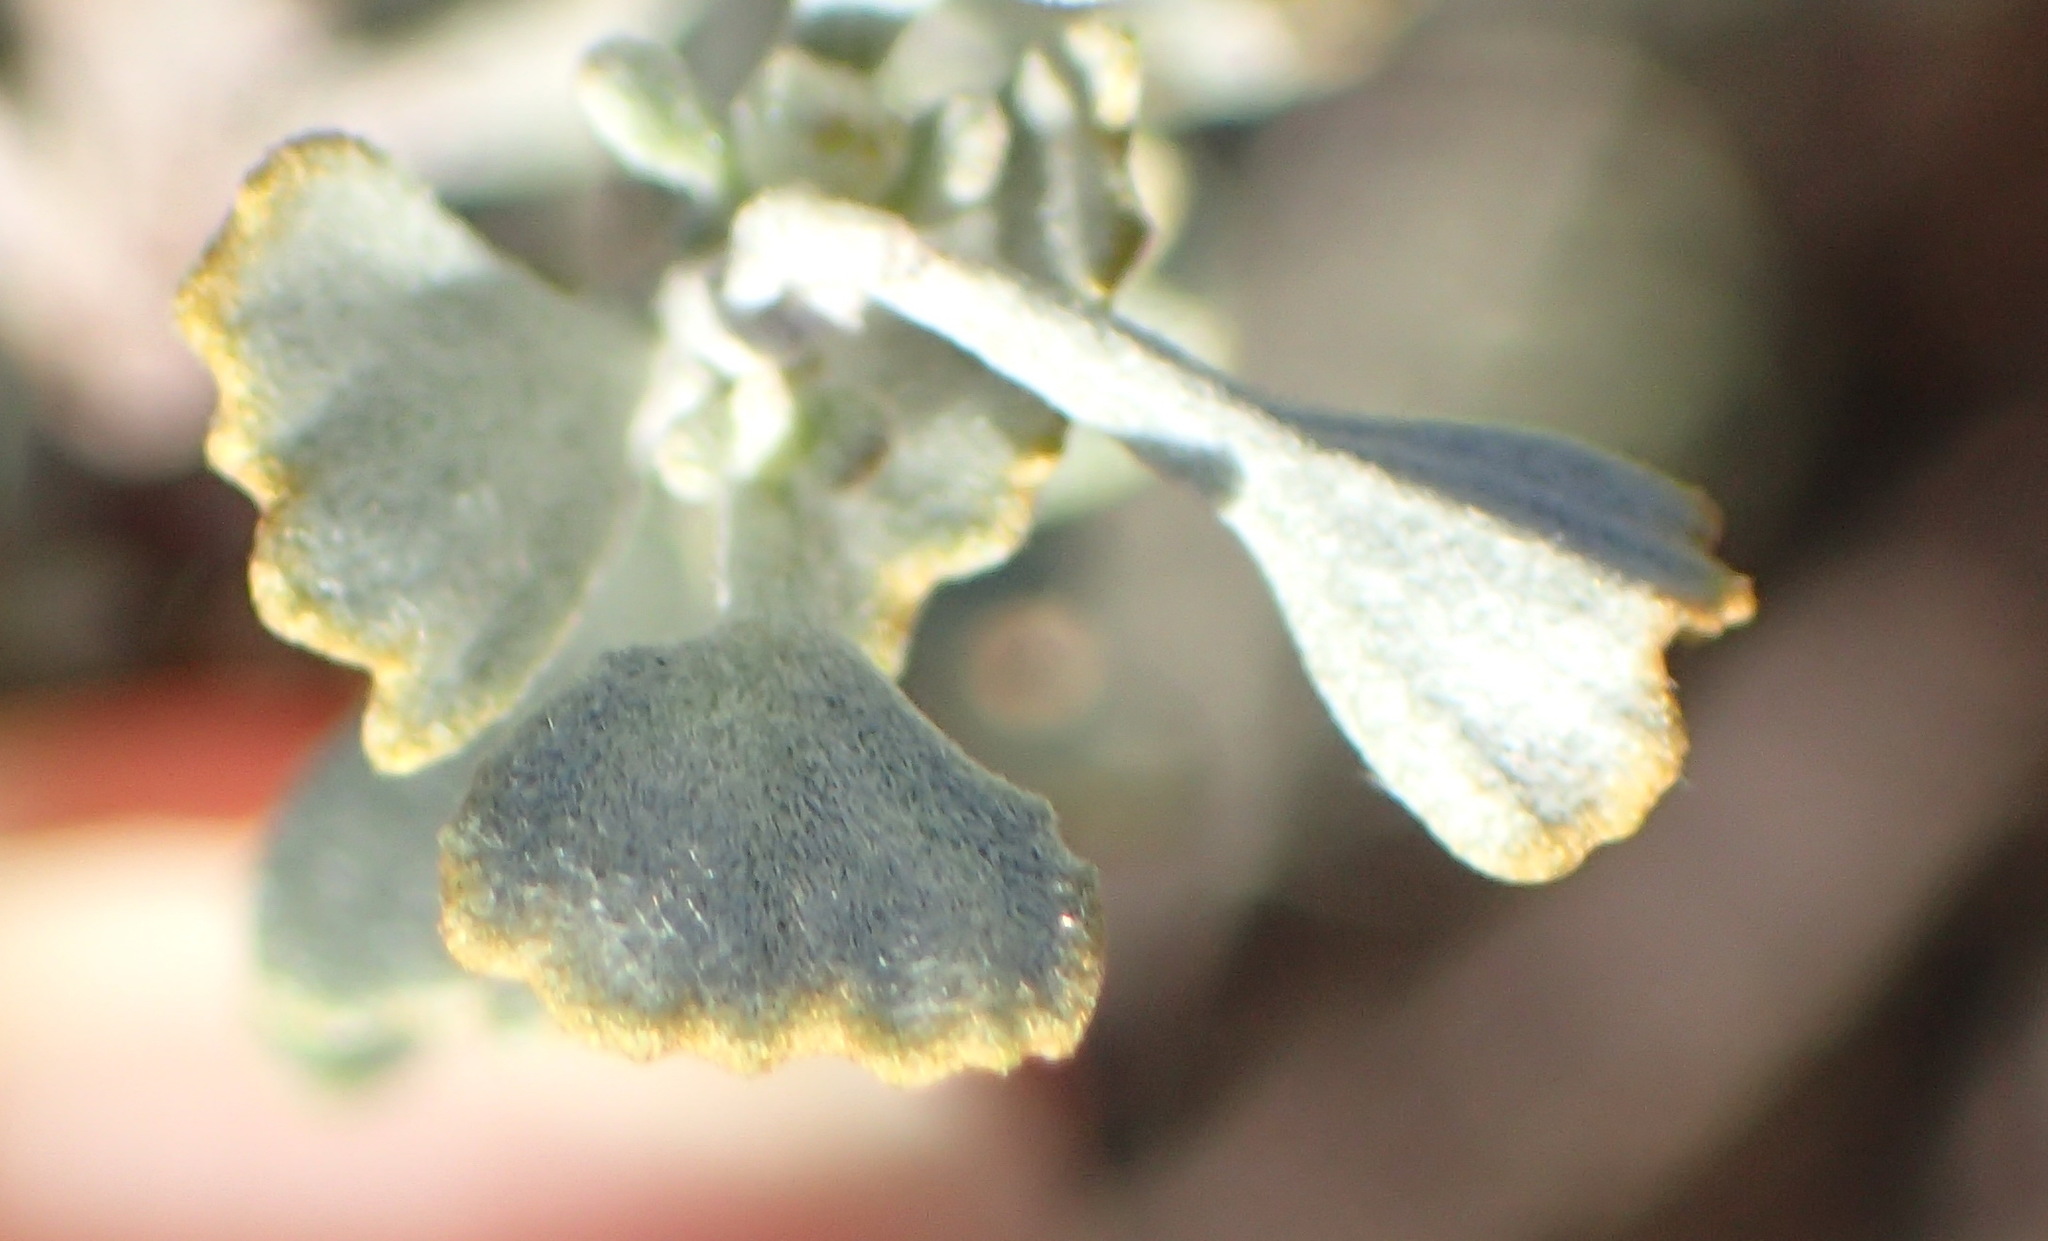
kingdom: Plantae
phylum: Tracheophyta
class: Magnoliopsida
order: Asterales
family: Asteraceae
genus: Pentzia
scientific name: Pentzia dentata
